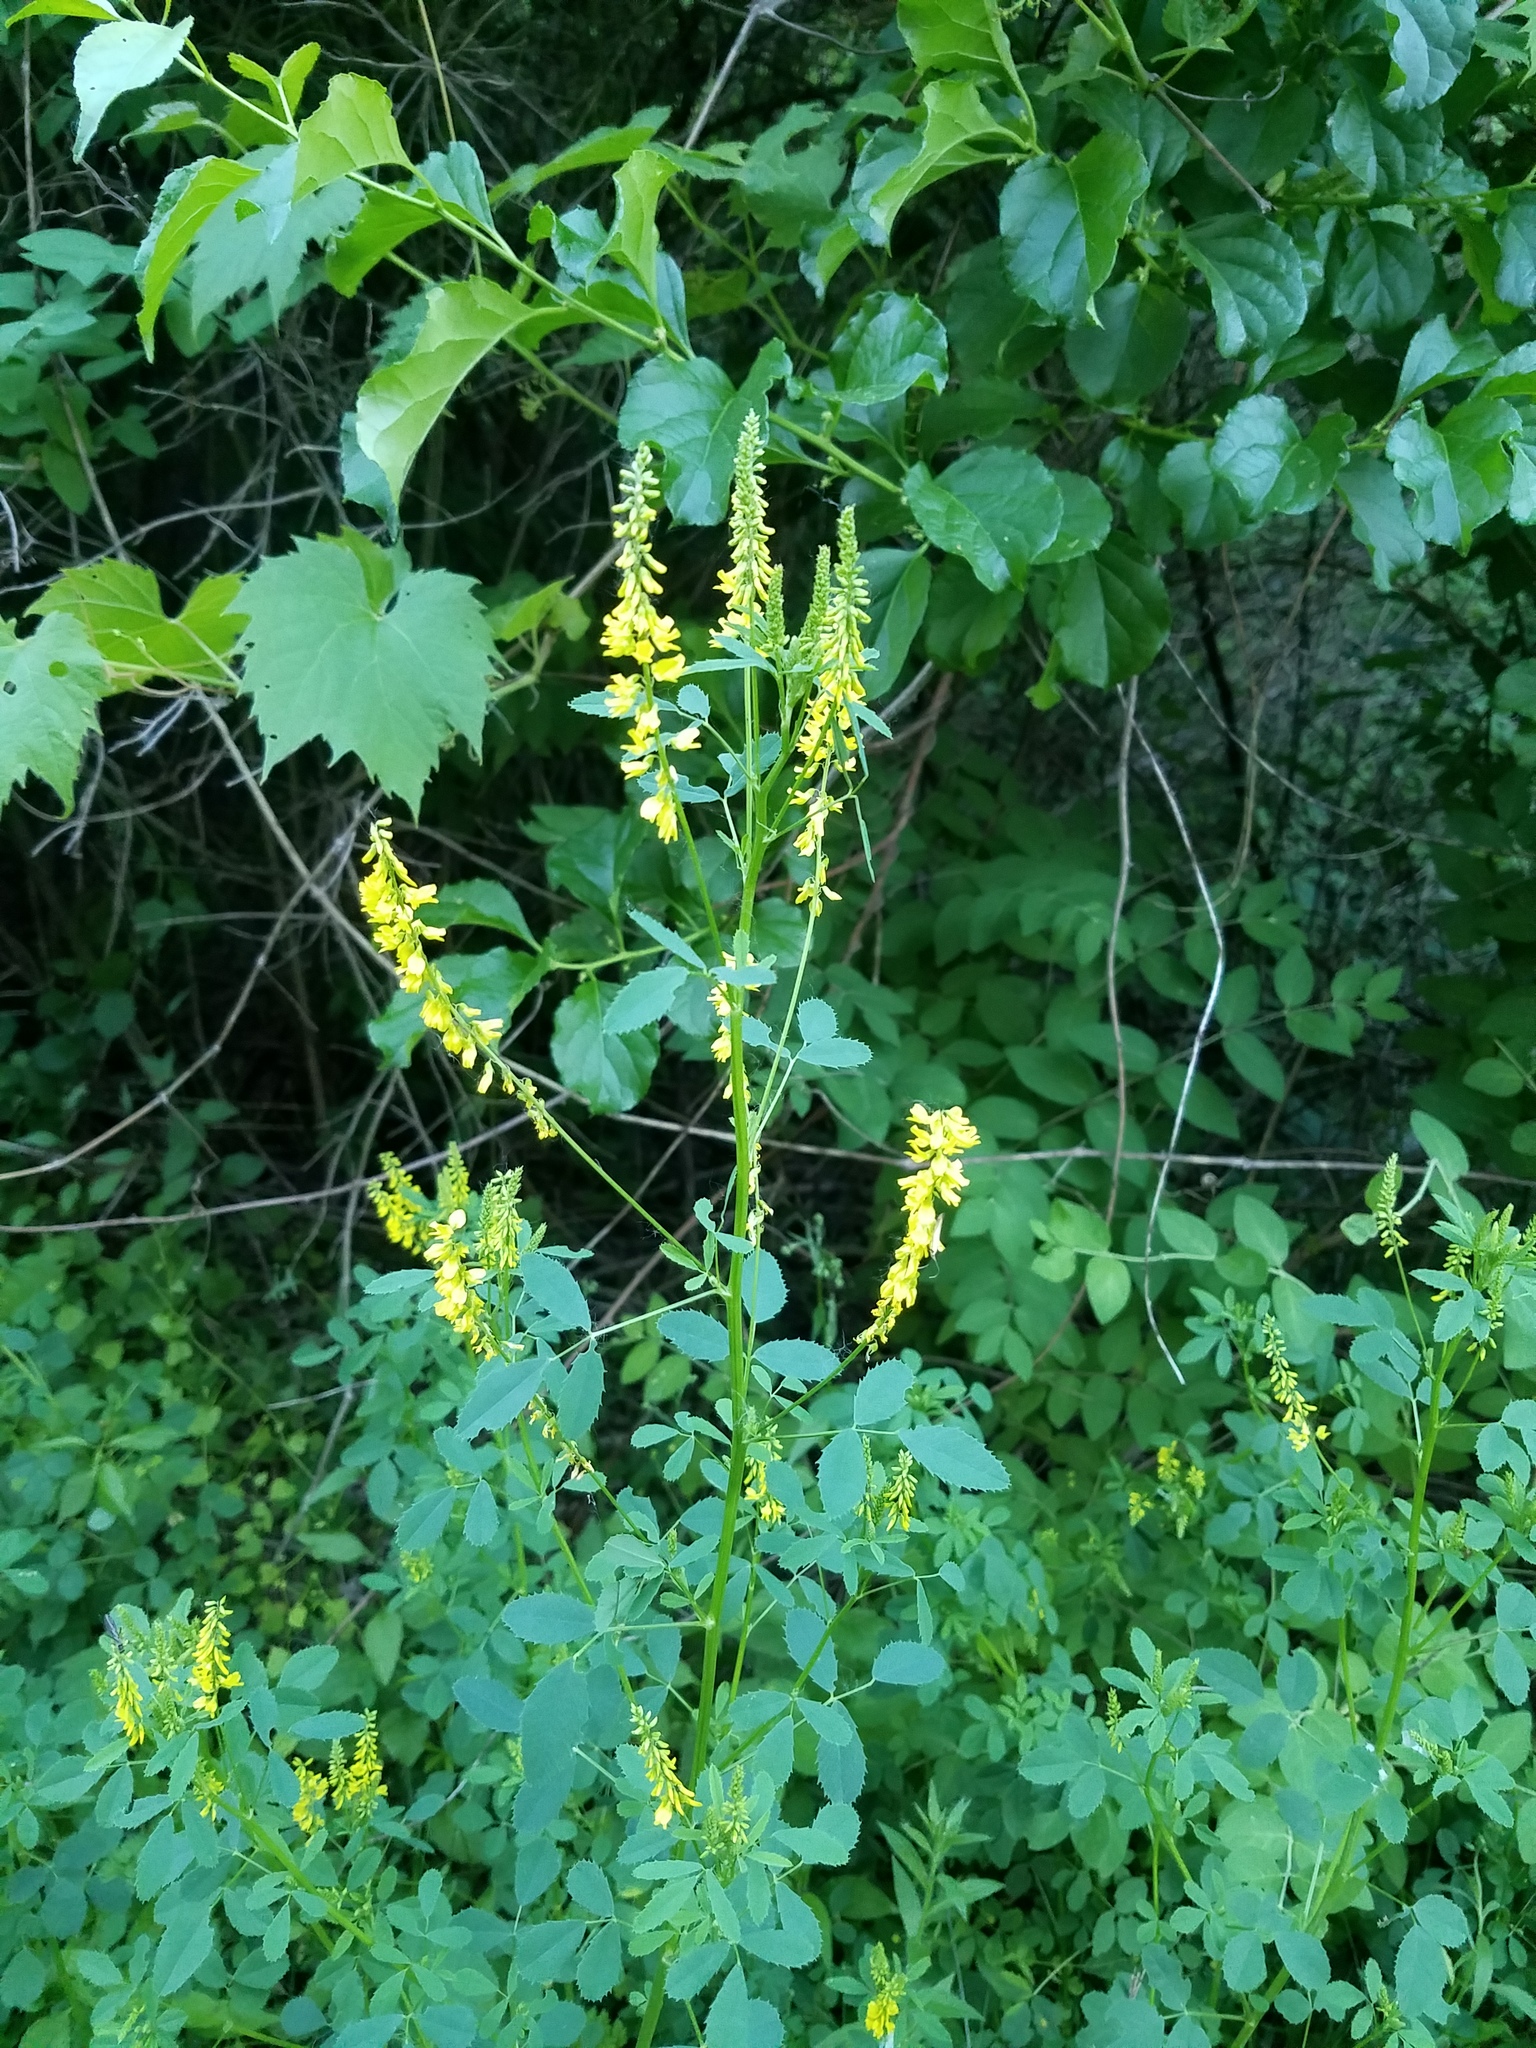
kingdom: Plantae
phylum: Tracheophyta
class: Magnoliopsida
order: Fabales
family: Fabaceae
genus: Melilotus
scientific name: Melilotus officinalis
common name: Sweetclover
